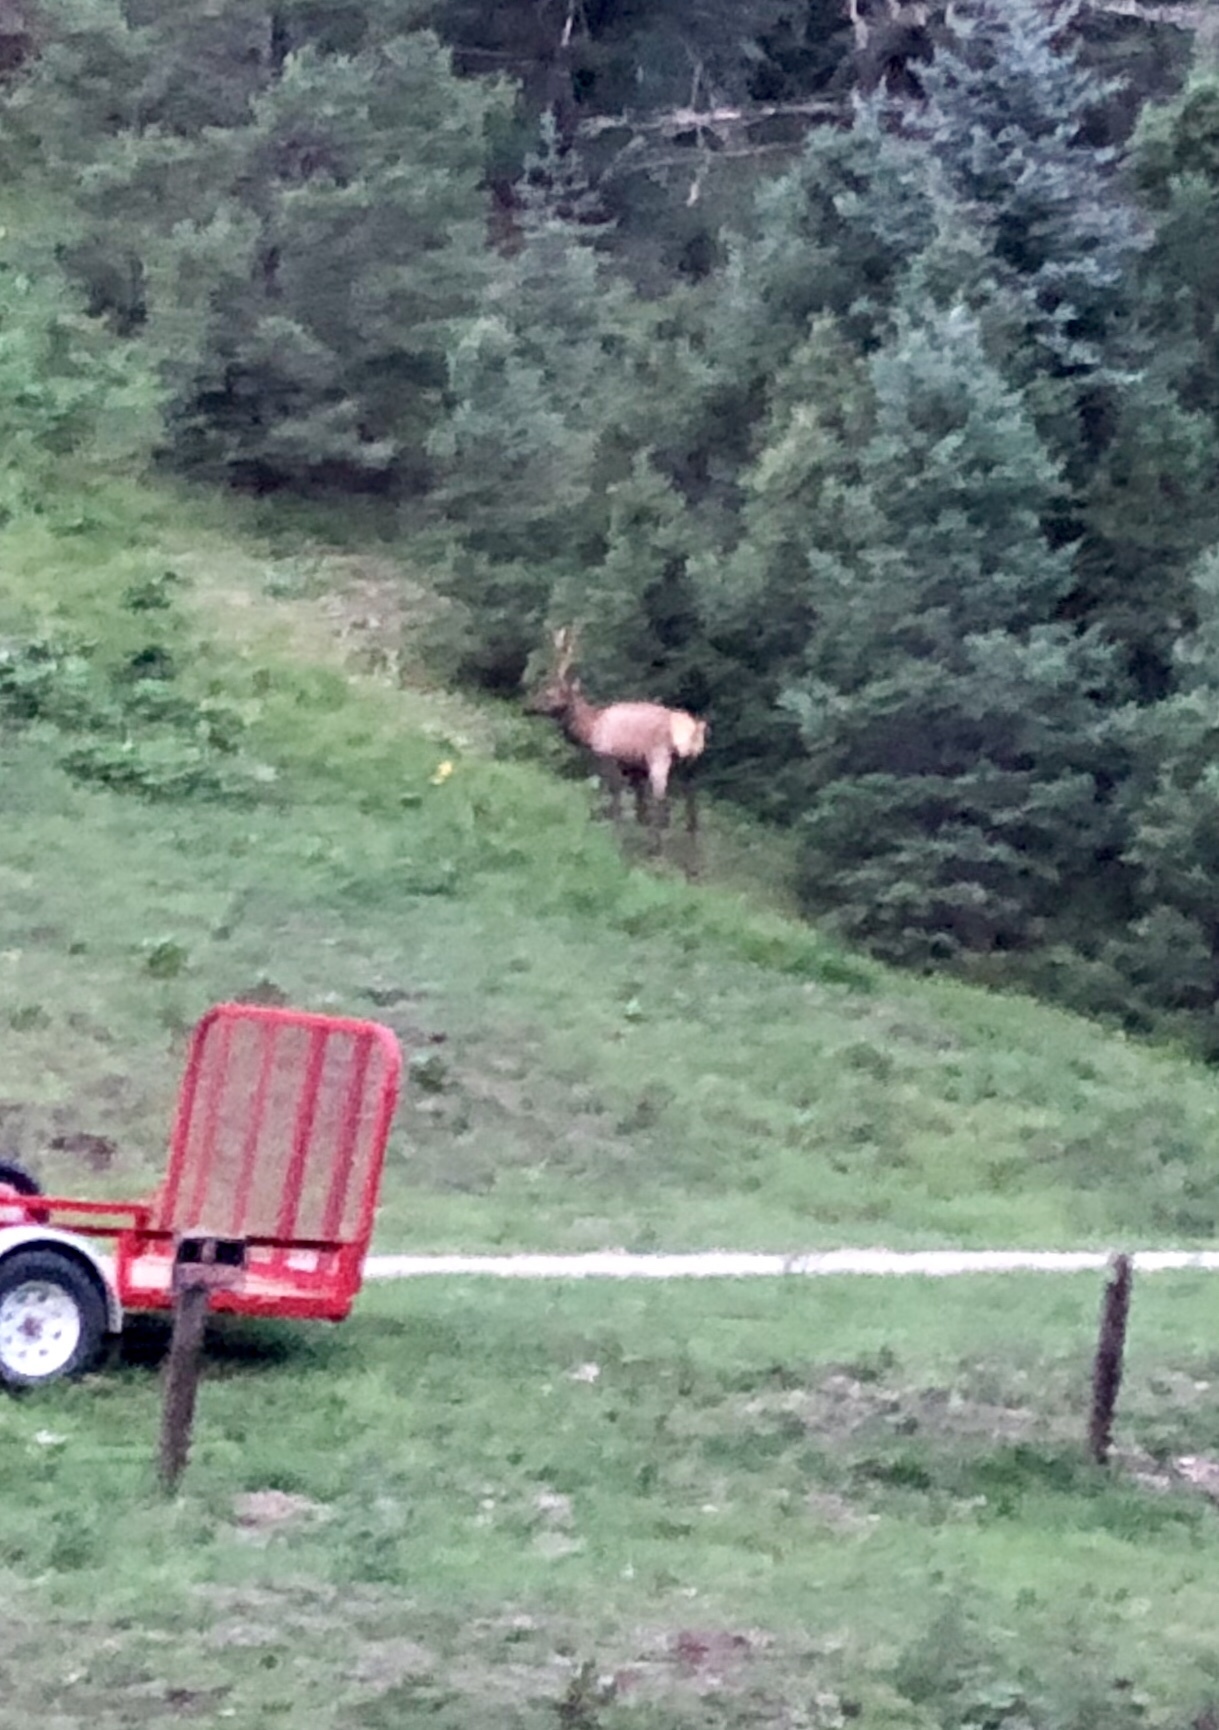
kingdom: Animalia
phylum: Chordata
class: Mammalia
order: Artiodactyla
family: Cervidae
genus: Cervus
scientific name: Cervus elaphus
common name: Red deer
